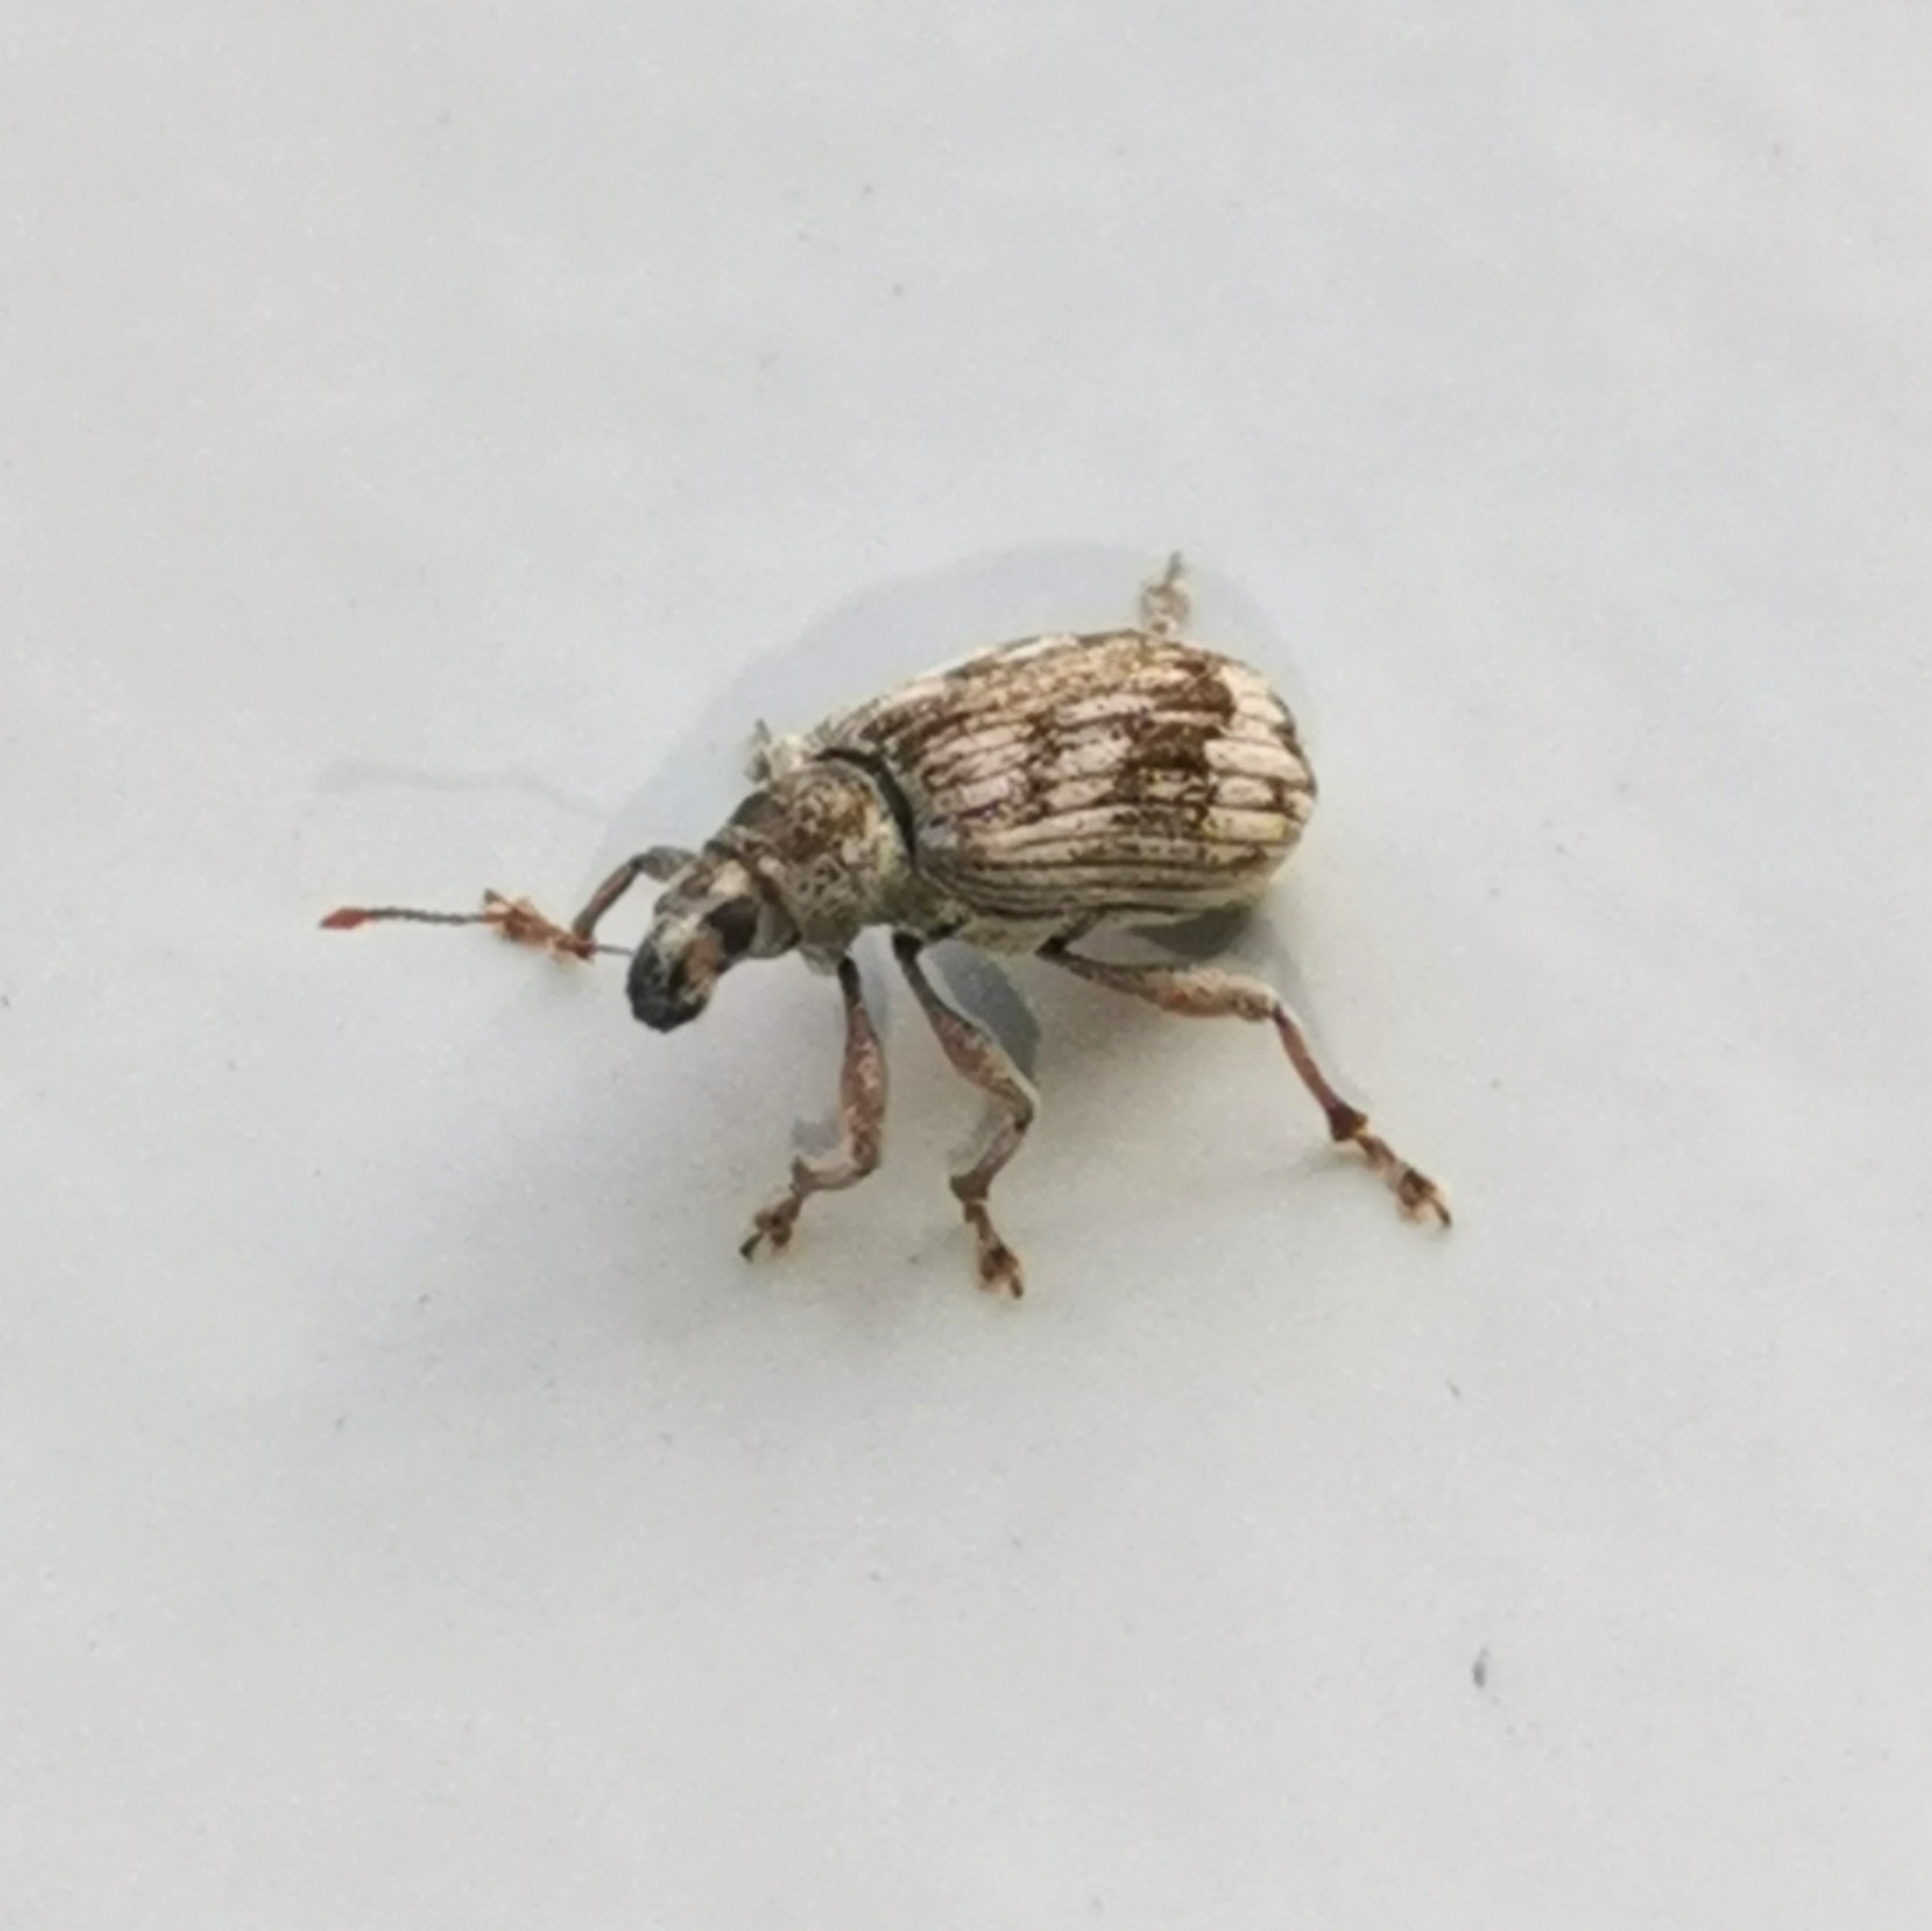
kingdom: Animalia
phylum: Arthropoda
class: Insecta
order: Coleoptera
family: Curculionidae
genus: Polydrusus
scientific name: Polydrusus tereticollis
